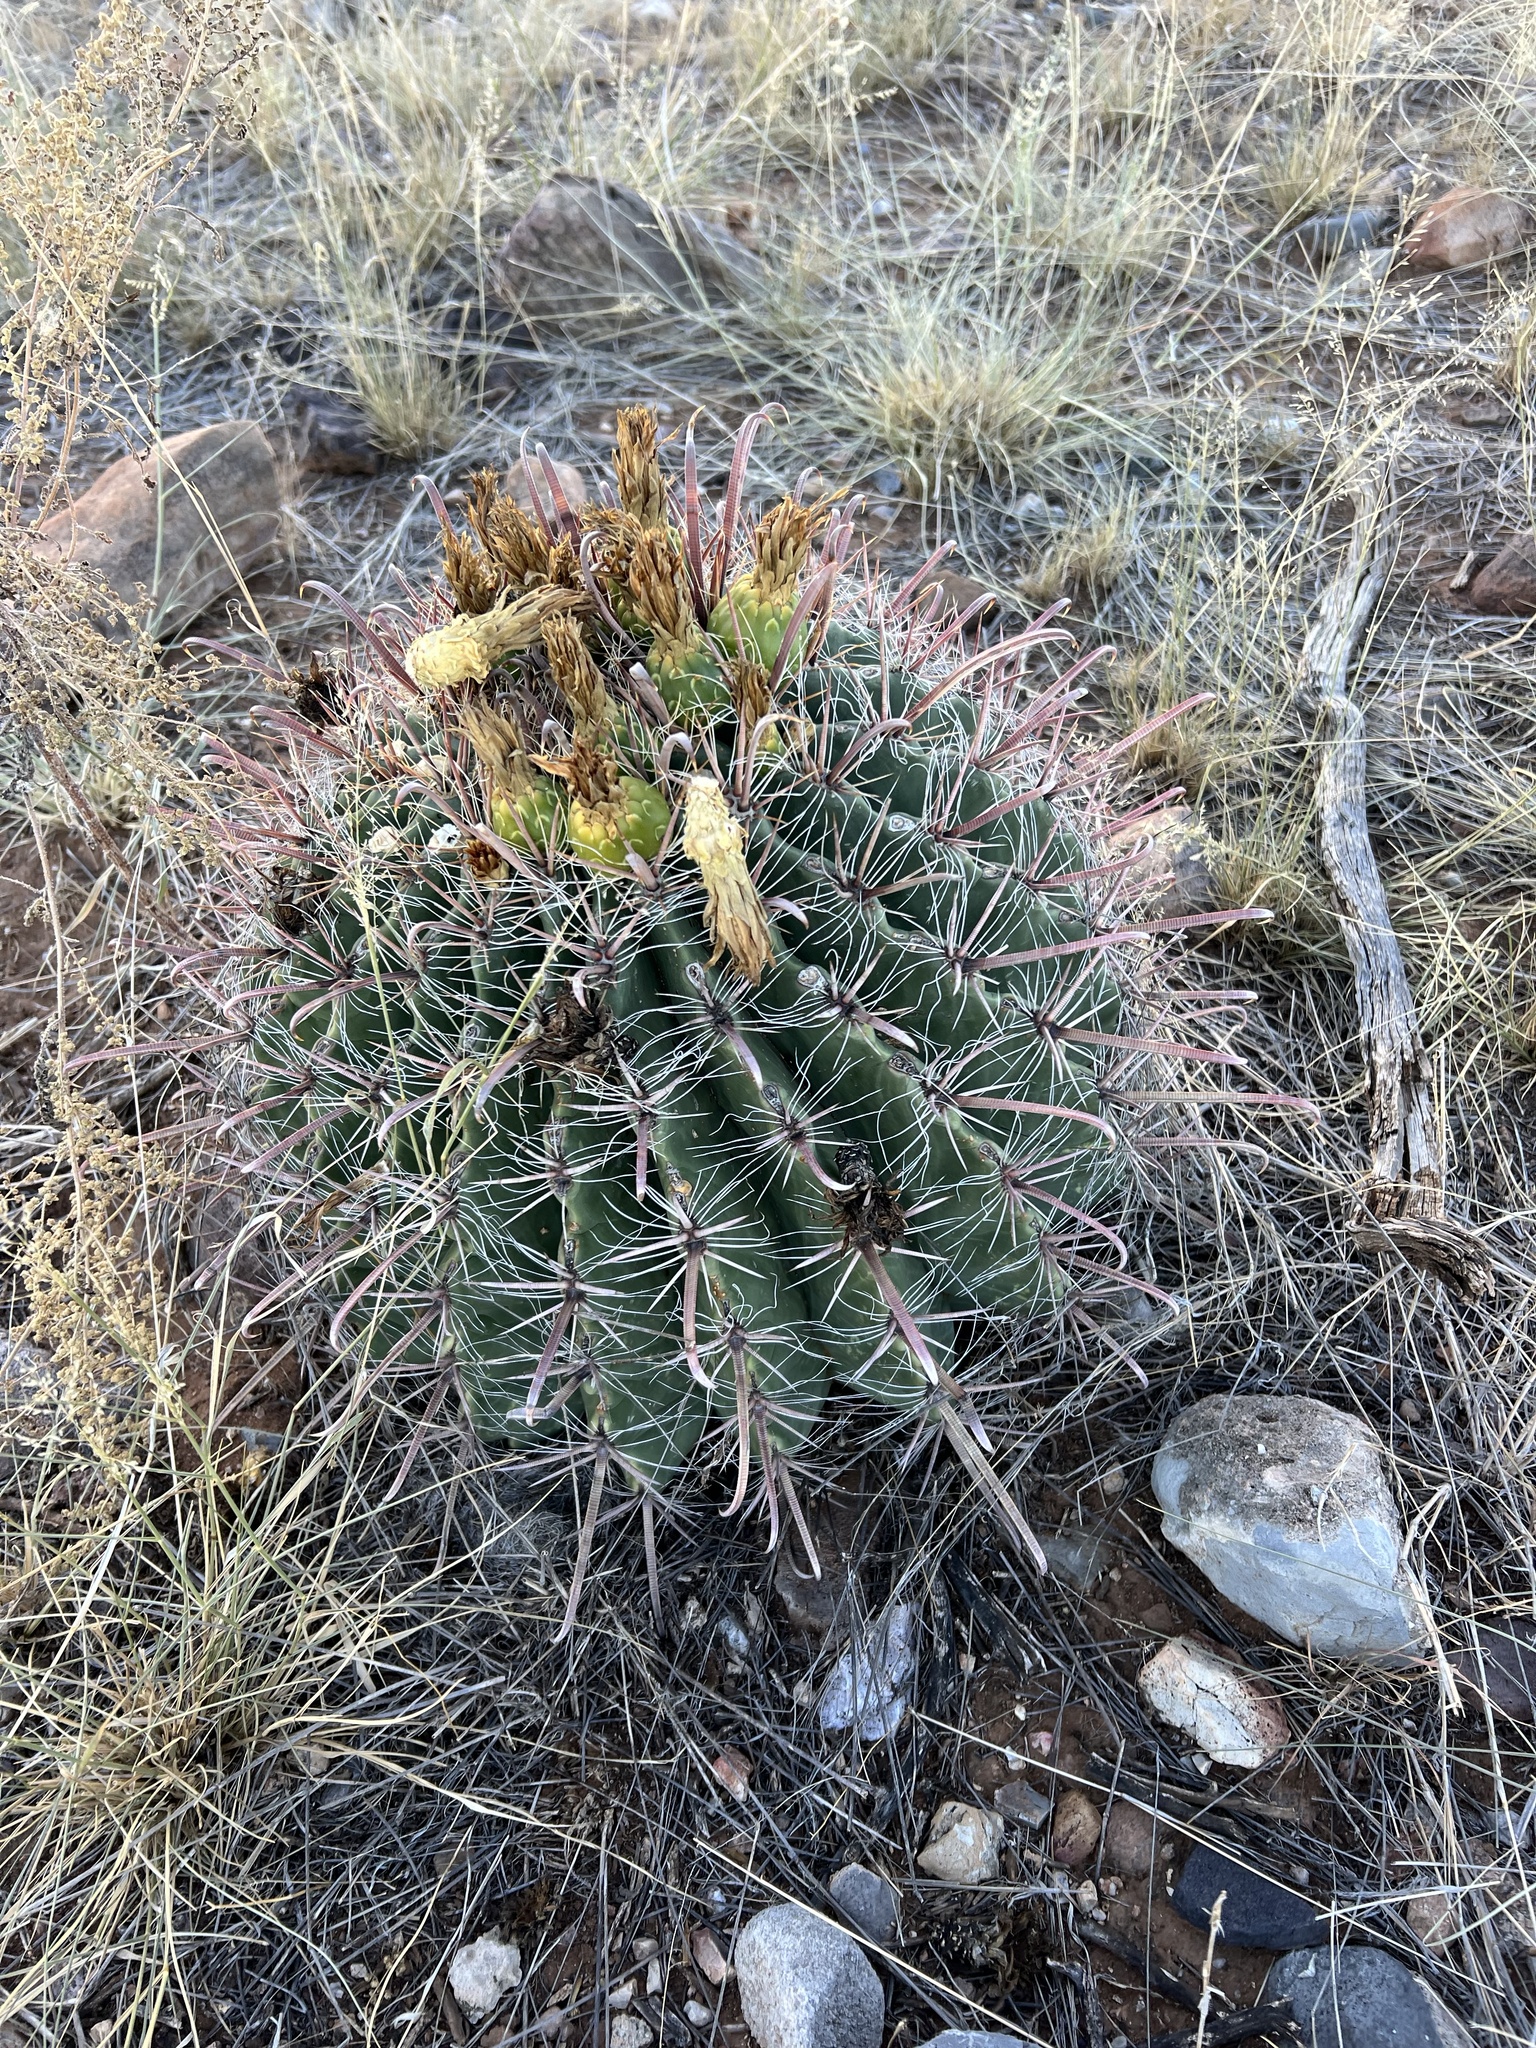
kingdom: Plantae
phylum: Tracheophyta
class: Magnoliopsida
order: Caryophyllales
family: Cactaceae
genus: Ferocactus
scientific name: Ferocactus wislizeni
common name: Candy barrel cactus
